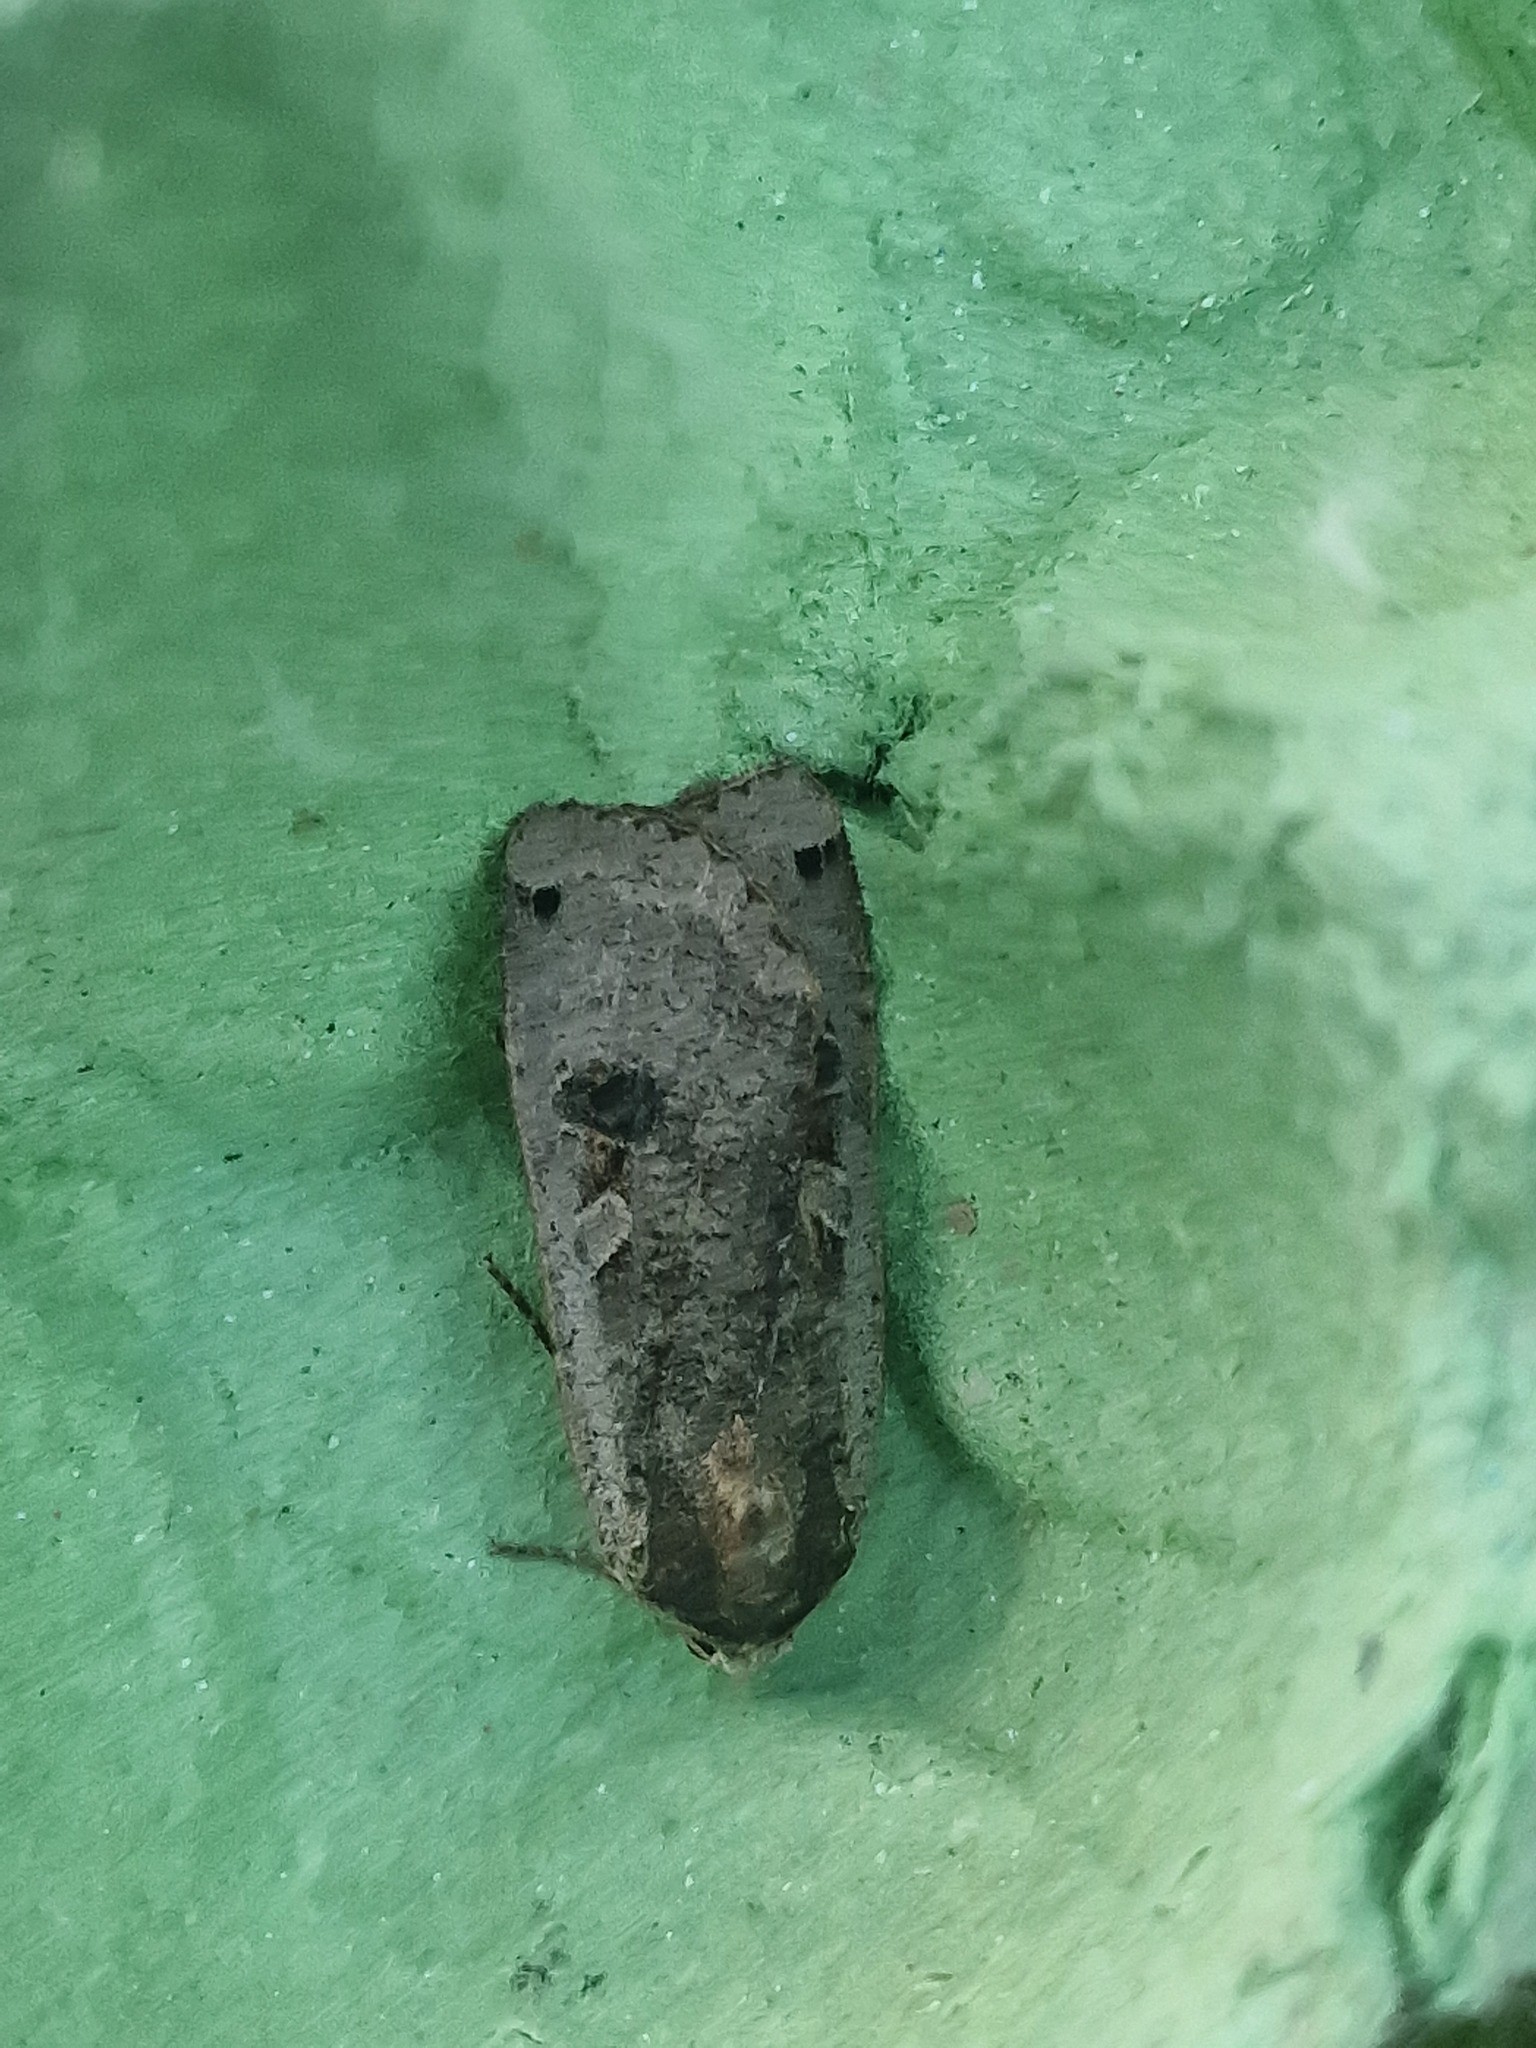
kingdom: Animalia
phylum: Arthropoda
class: Insecta
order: Lepidoptera
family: Noctuidae
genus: Noctua
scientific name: Noctua pronuba
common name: Large yellow underwing
